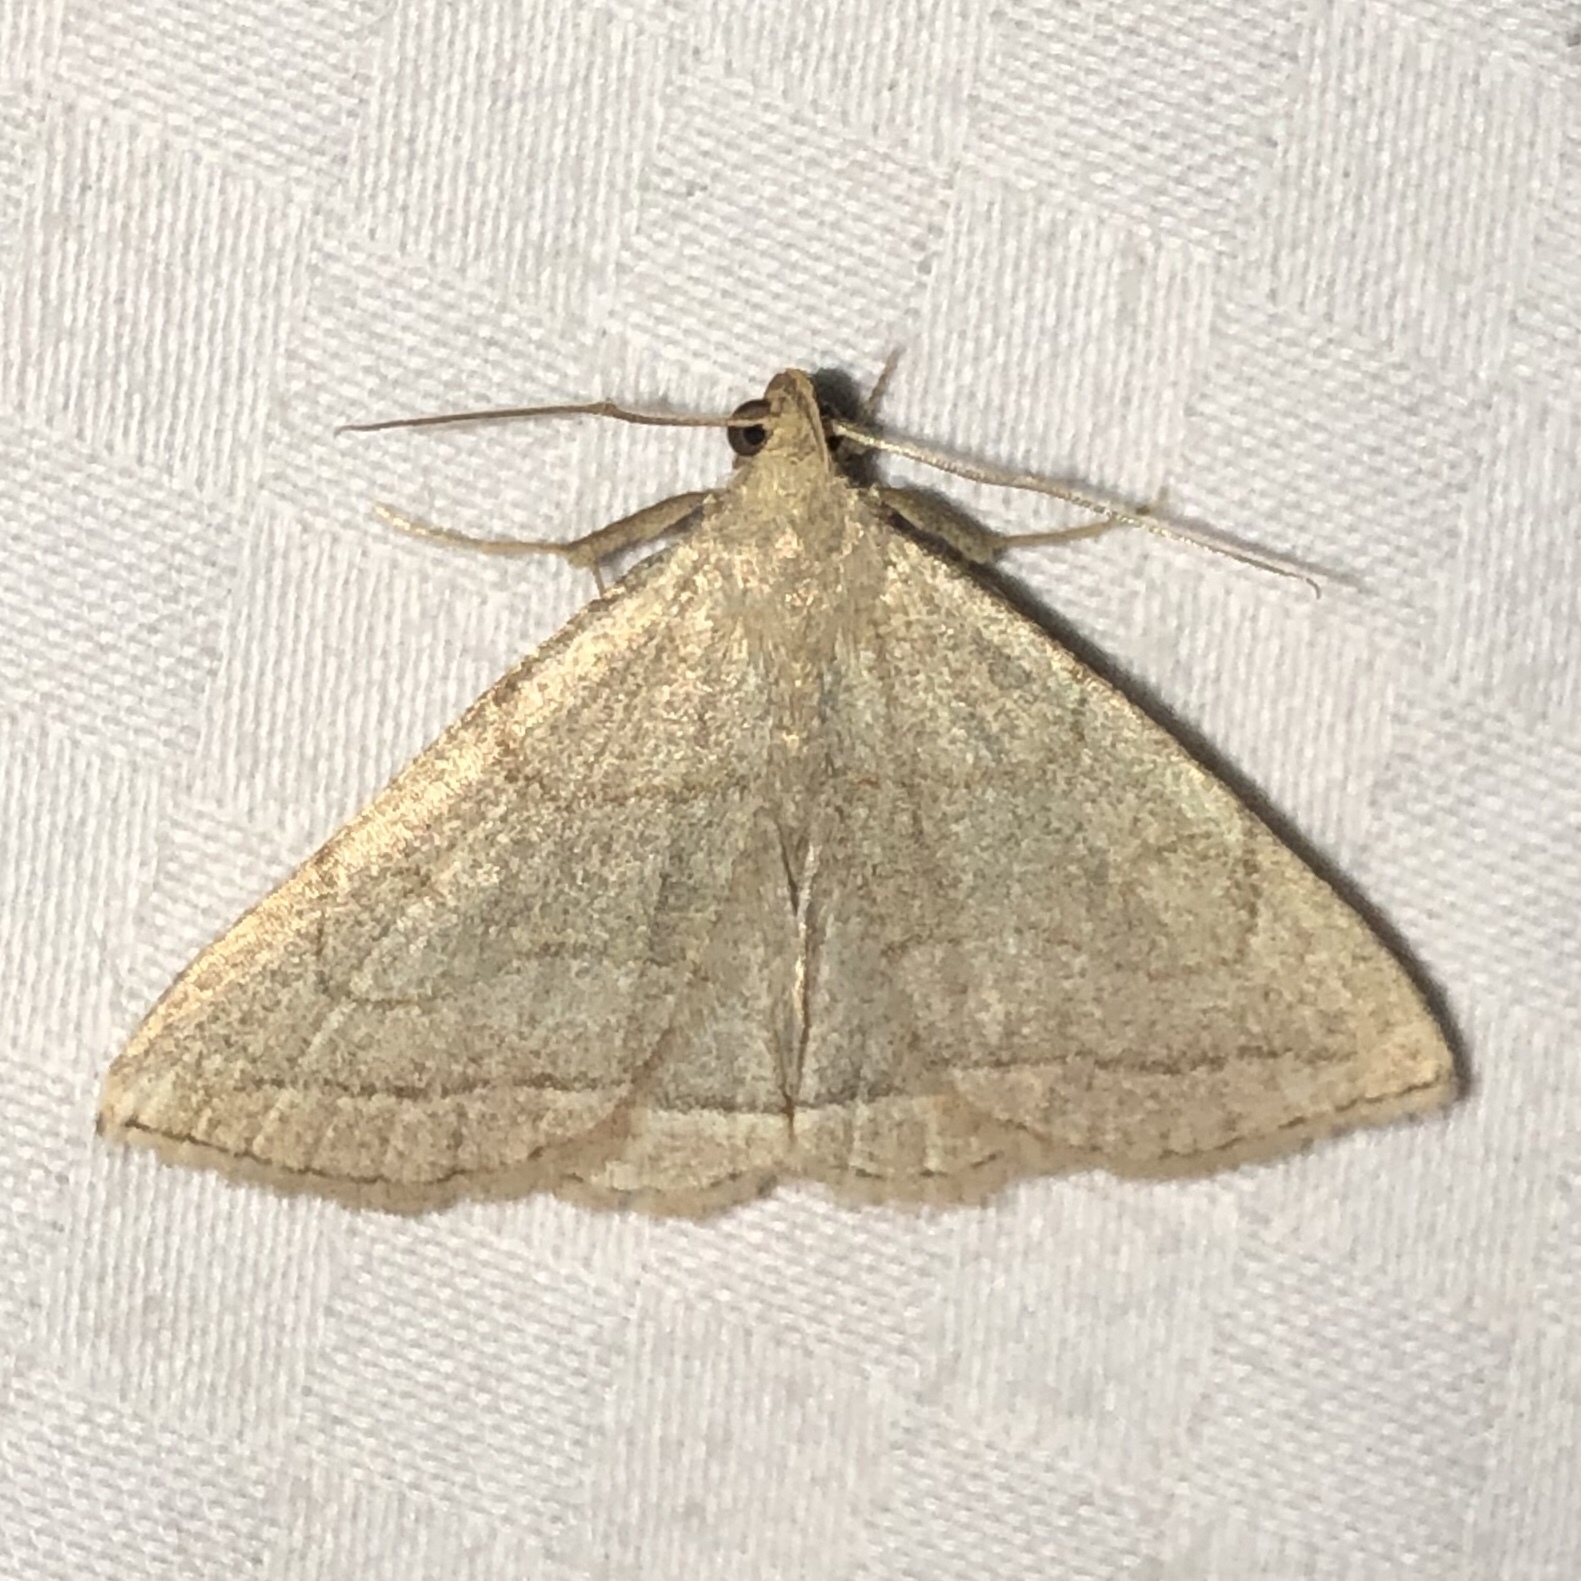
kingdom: Animalia
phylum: Arthropoda
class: Insecta
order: Lepidoptera
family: Erebidae
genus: Zanclognatha
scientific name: Zanclognatha pedipilalis
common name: Grayish fan-foot
